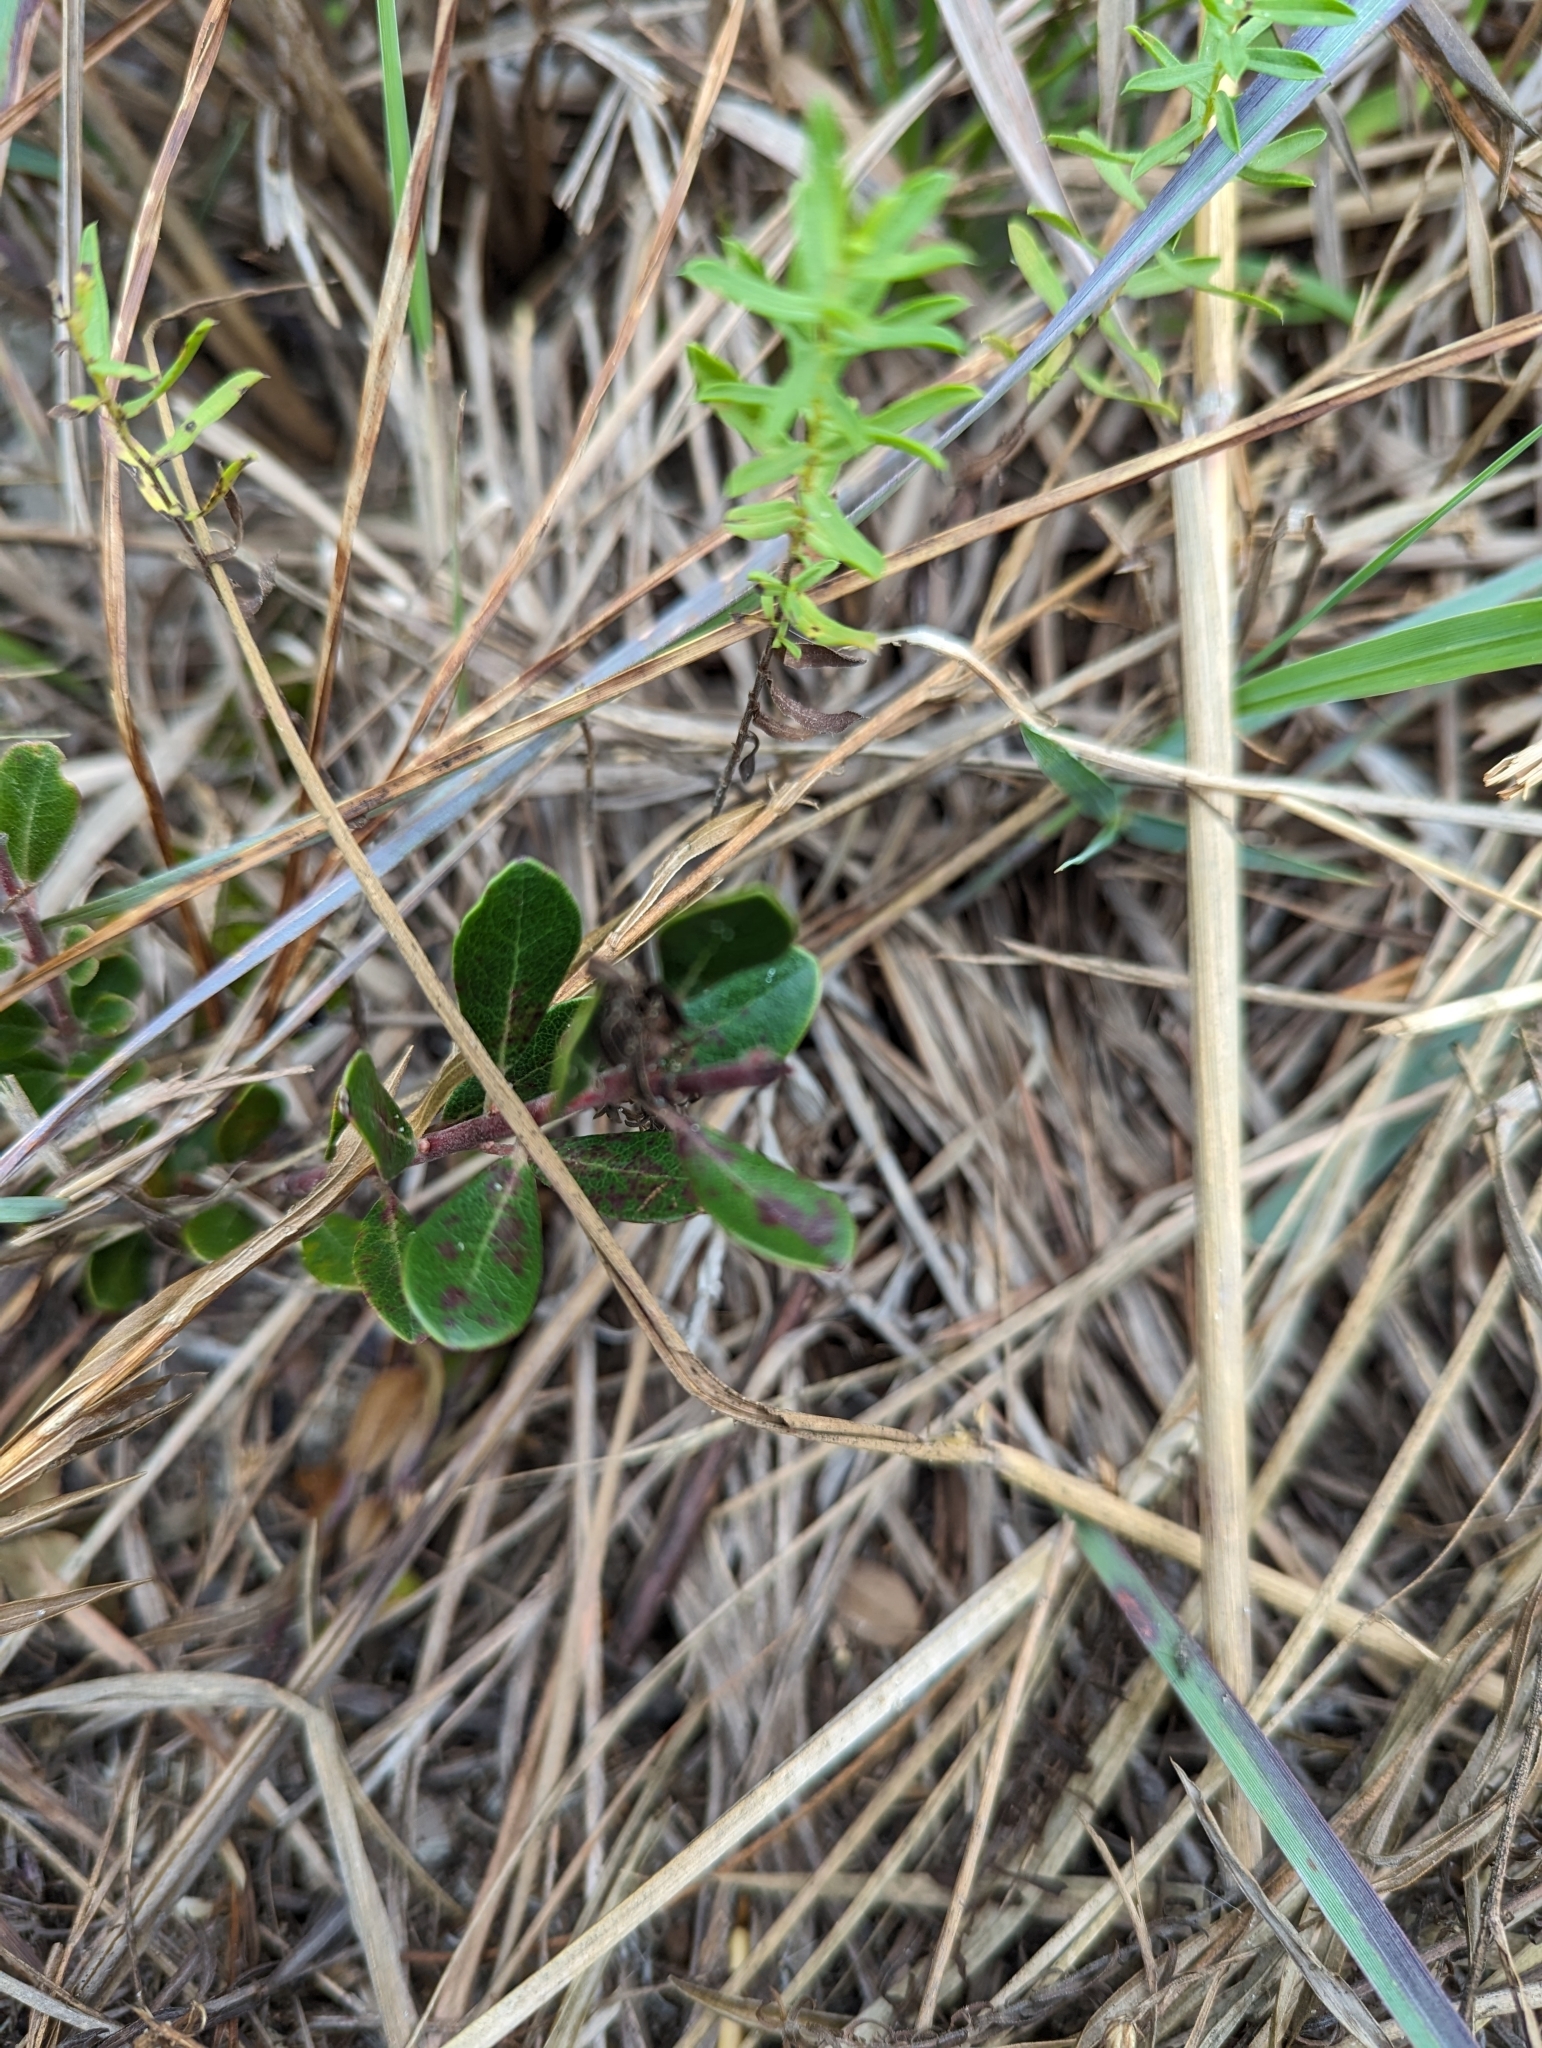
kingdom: Plantae
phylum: Tracheophyta
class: Magnoliopsida
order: Ericales
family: Ericaceae
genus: Arctostaphylos
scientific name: Arctostaphylos uva-ursi
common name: Bearberry
